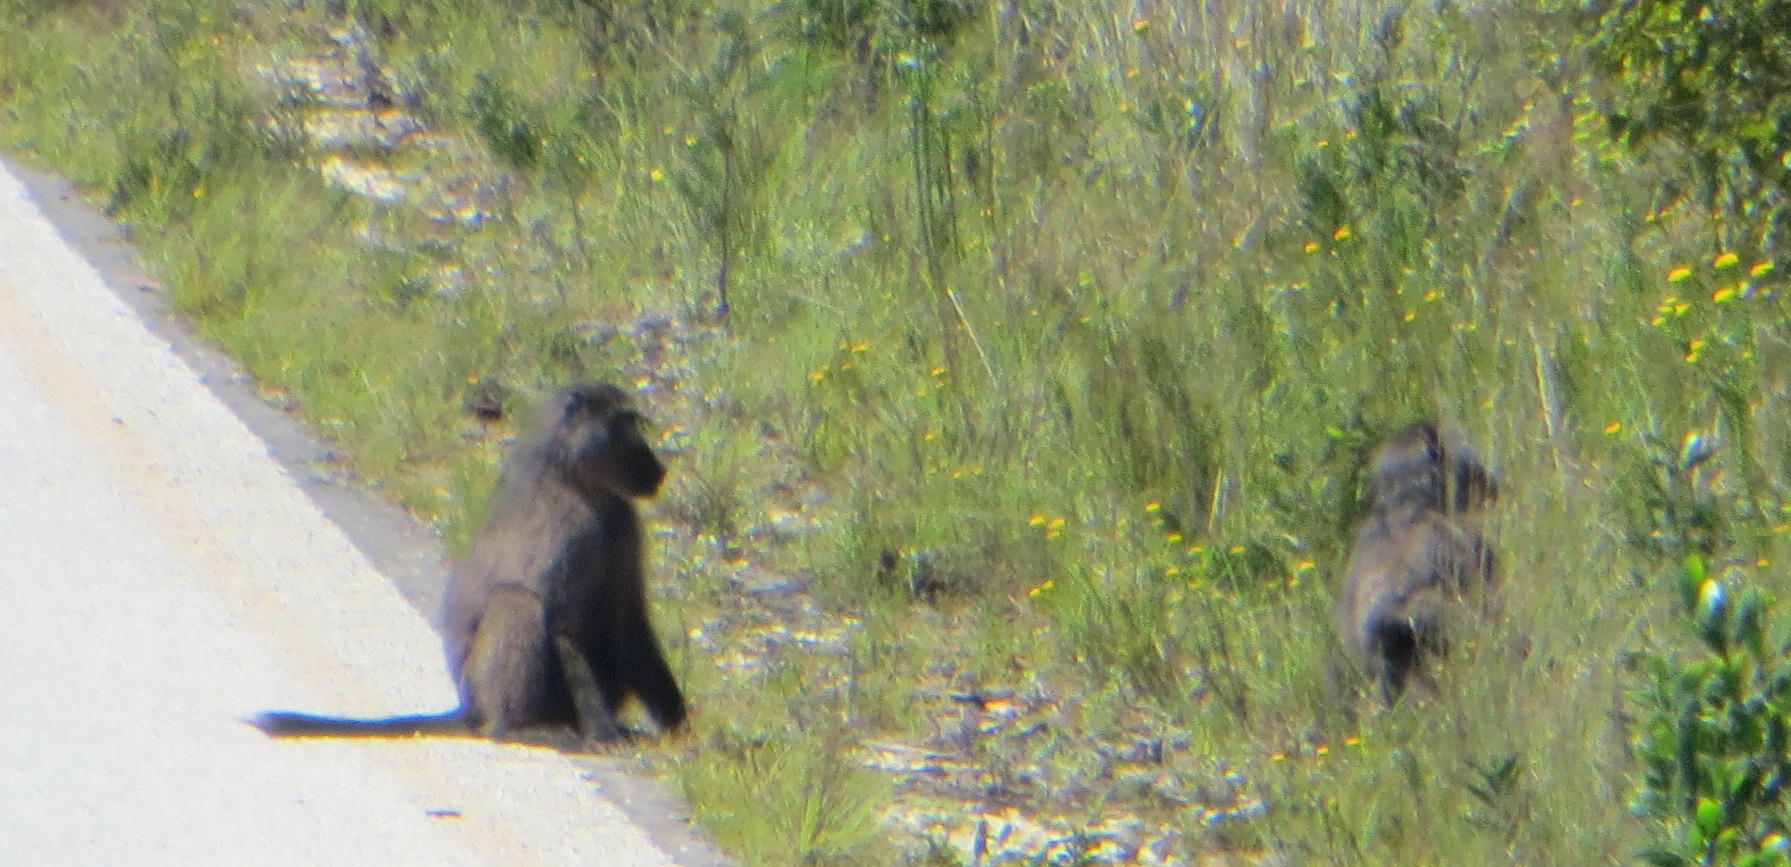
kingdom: Animalia
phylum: Chordata
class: Mammalia
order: Primates
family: Cercopithecidae
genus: Papio
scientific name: Papio ursinus
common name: Chacma baboon
